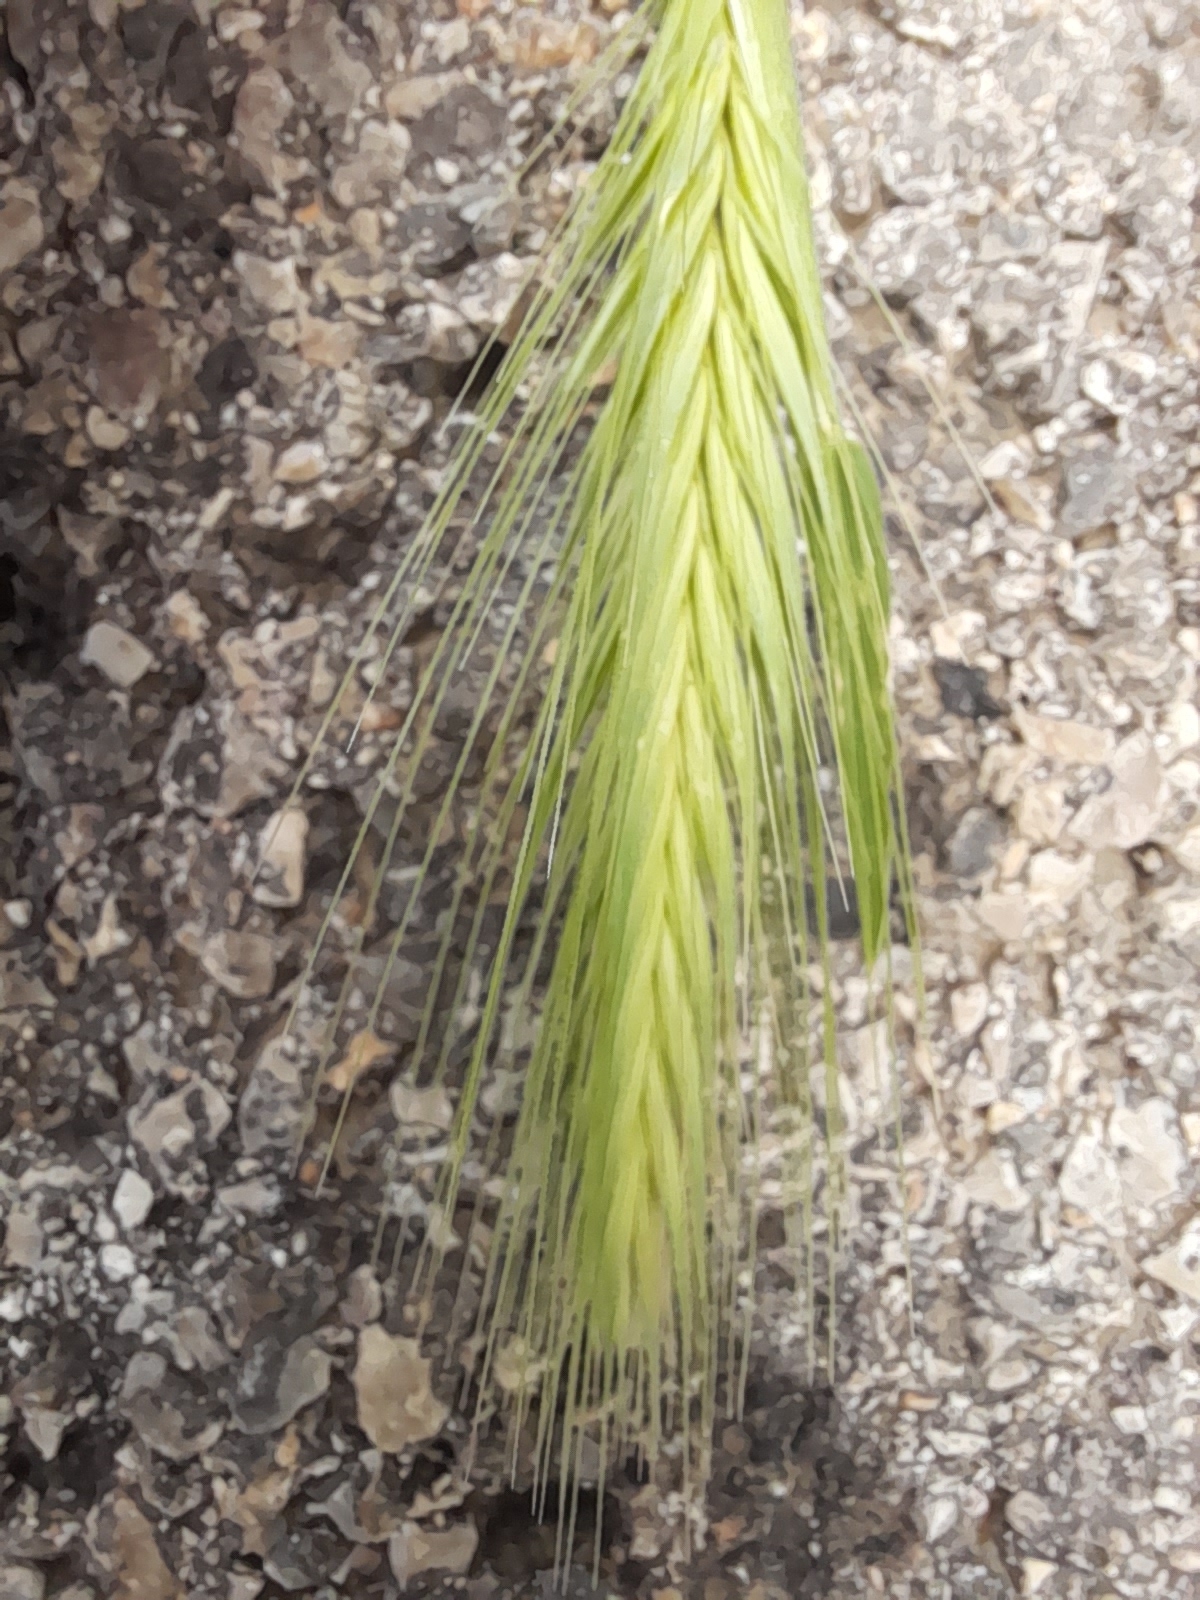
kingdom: Plantae
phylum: Tracheophyta
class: Liliopsida
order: Poales
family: Poaceae
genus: Hordeum
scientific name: Hordeum murinum
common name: Wall barley
